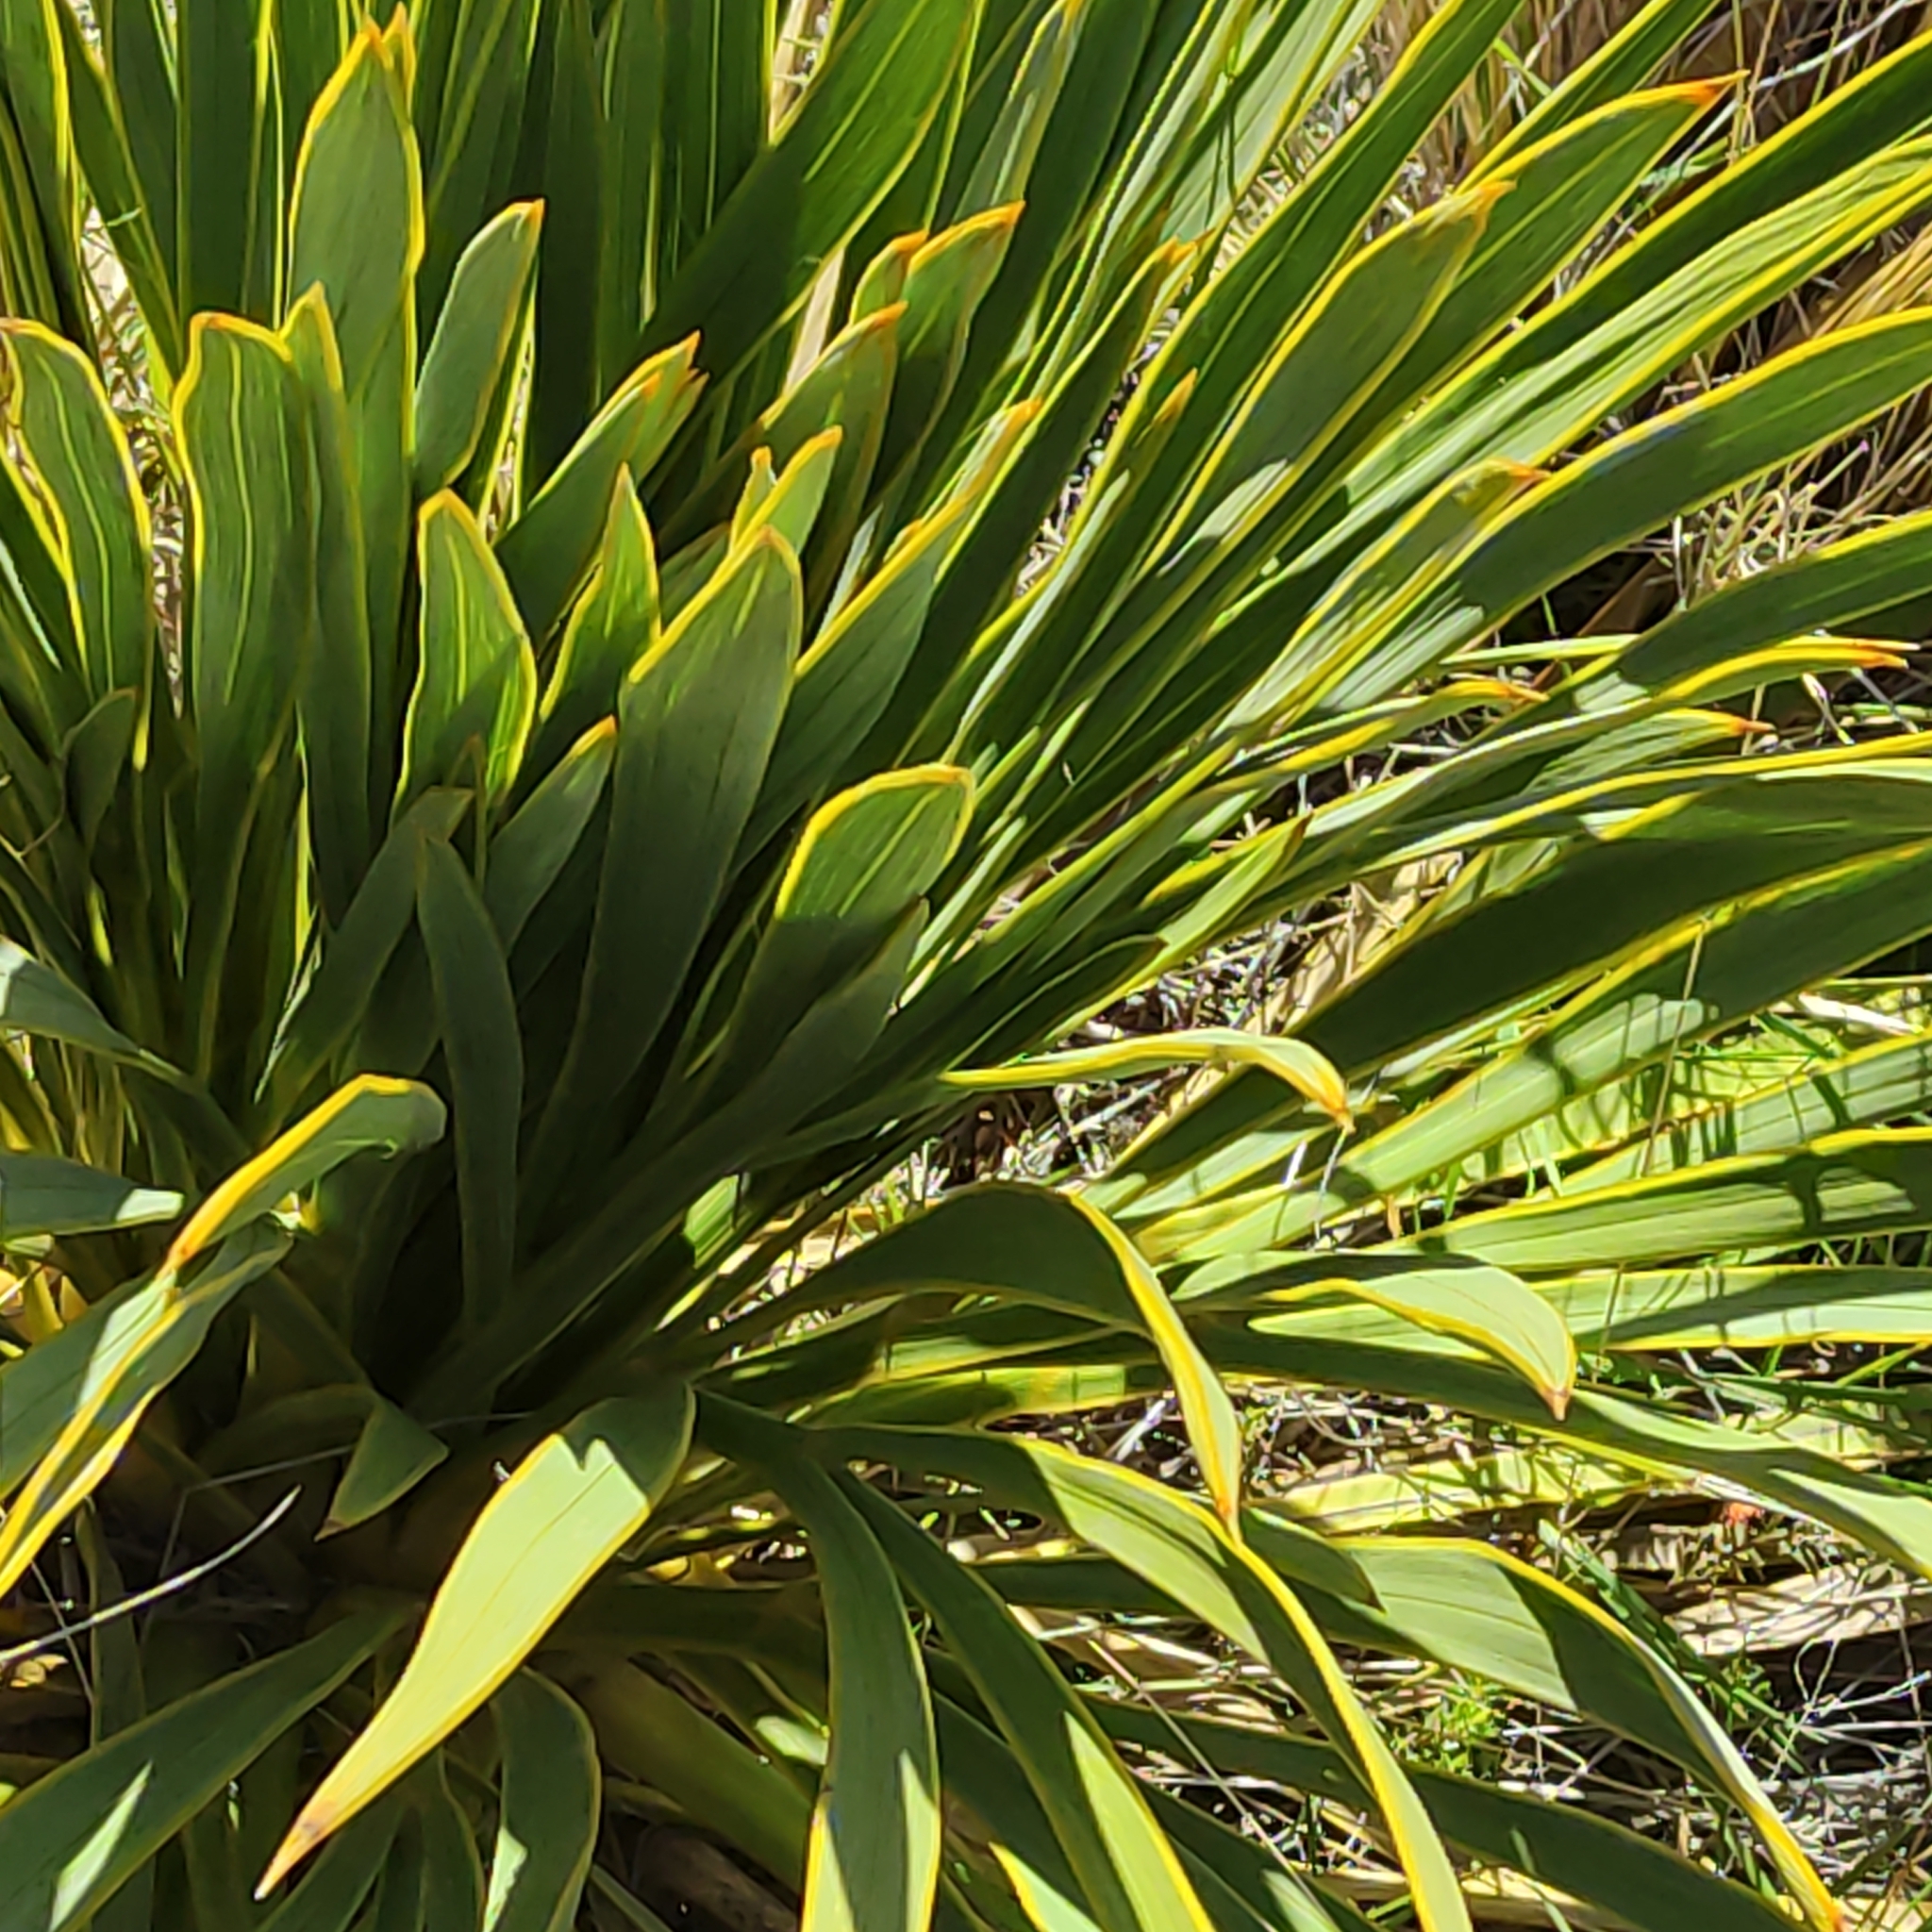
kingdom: Plantae
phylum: Tracheophyta
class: Magnoliopsida
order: Apiales
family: Apiaceae
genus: Aciphylla
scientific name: Aciphylla aurea
